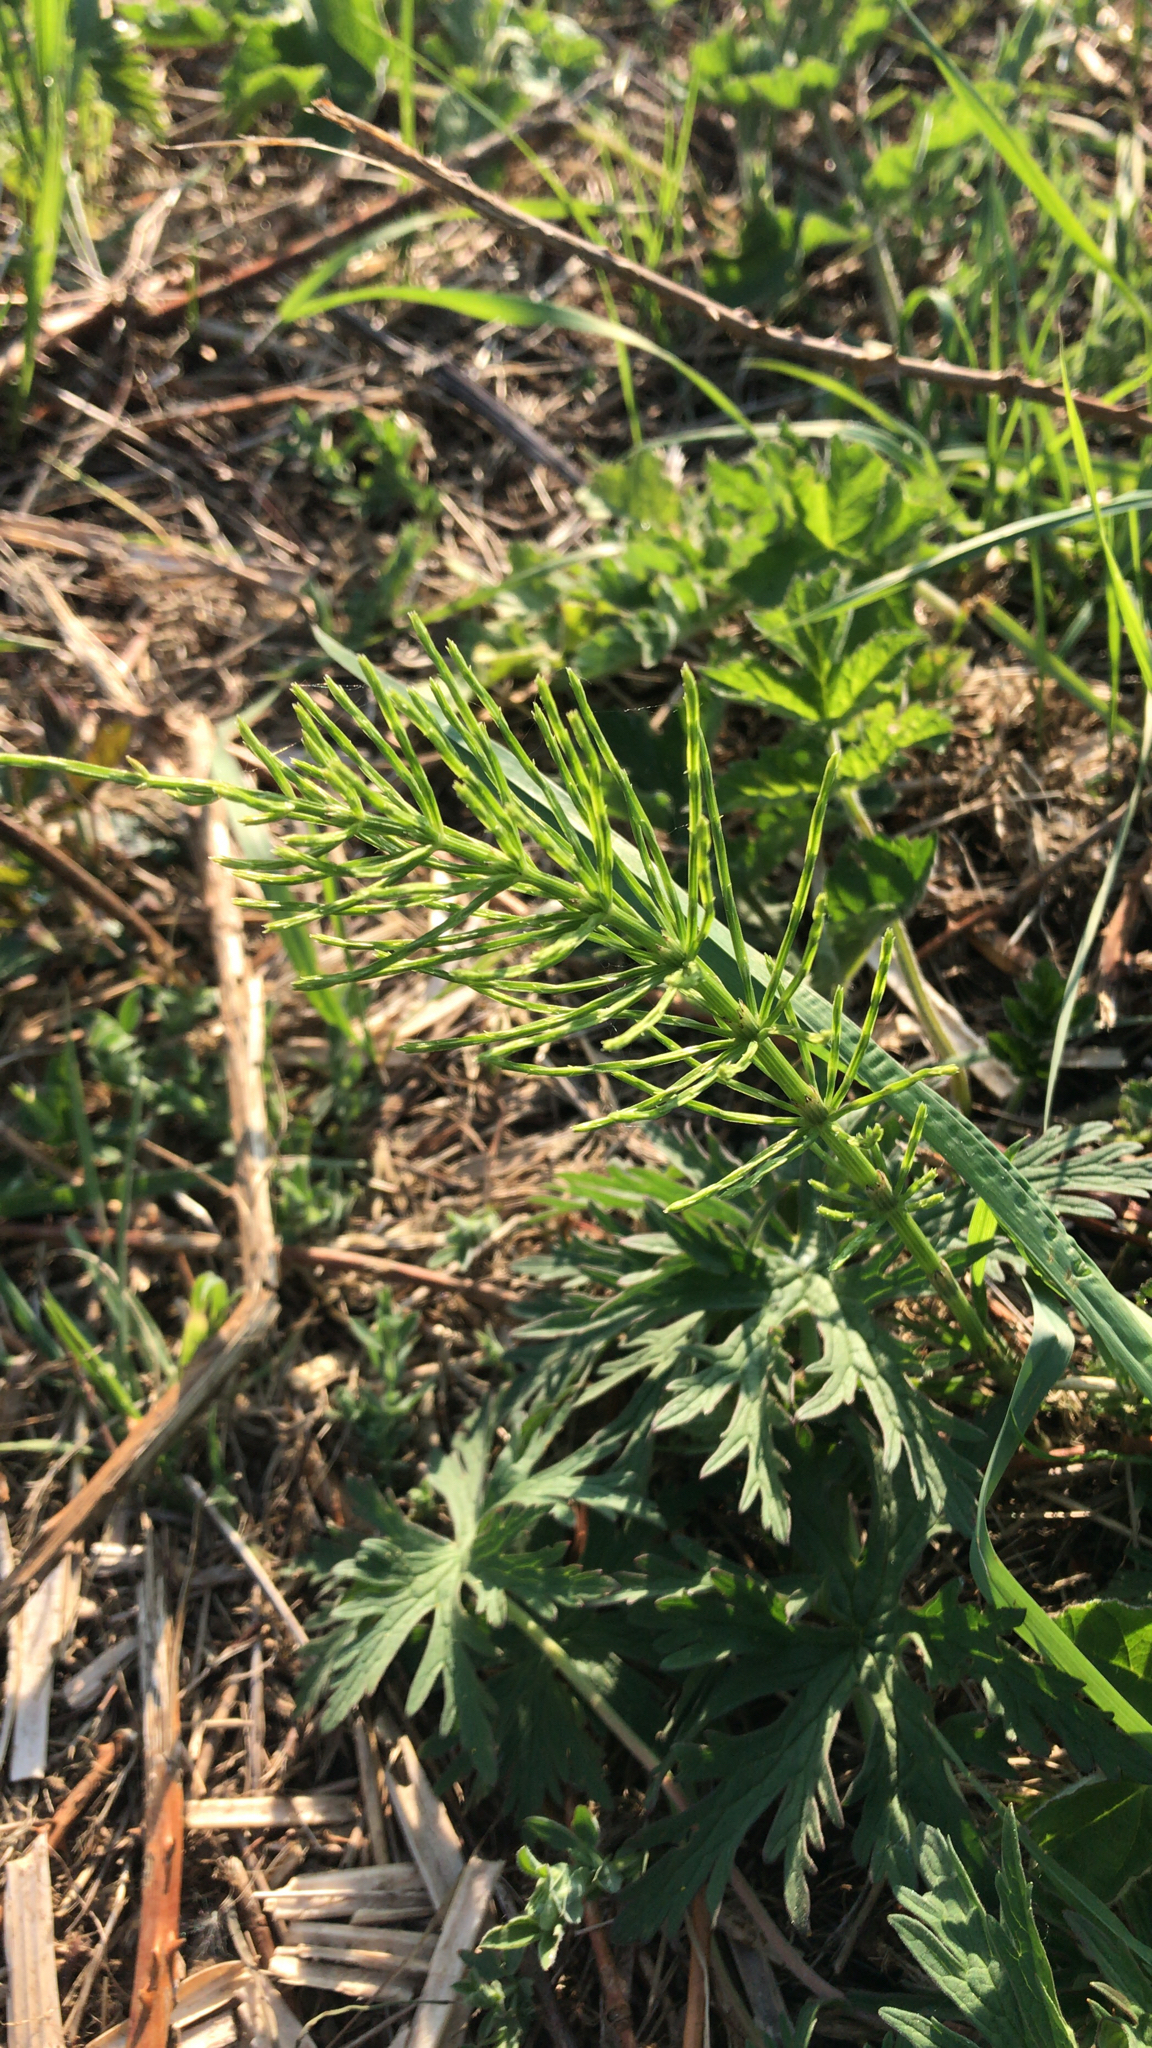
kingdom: Plantae
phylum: Tracheophyta
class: Polypodiopsida
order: Equisetales
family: Equisetaceae
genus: Equisetum
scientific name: Equisetum arvense
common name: Field horsetail
